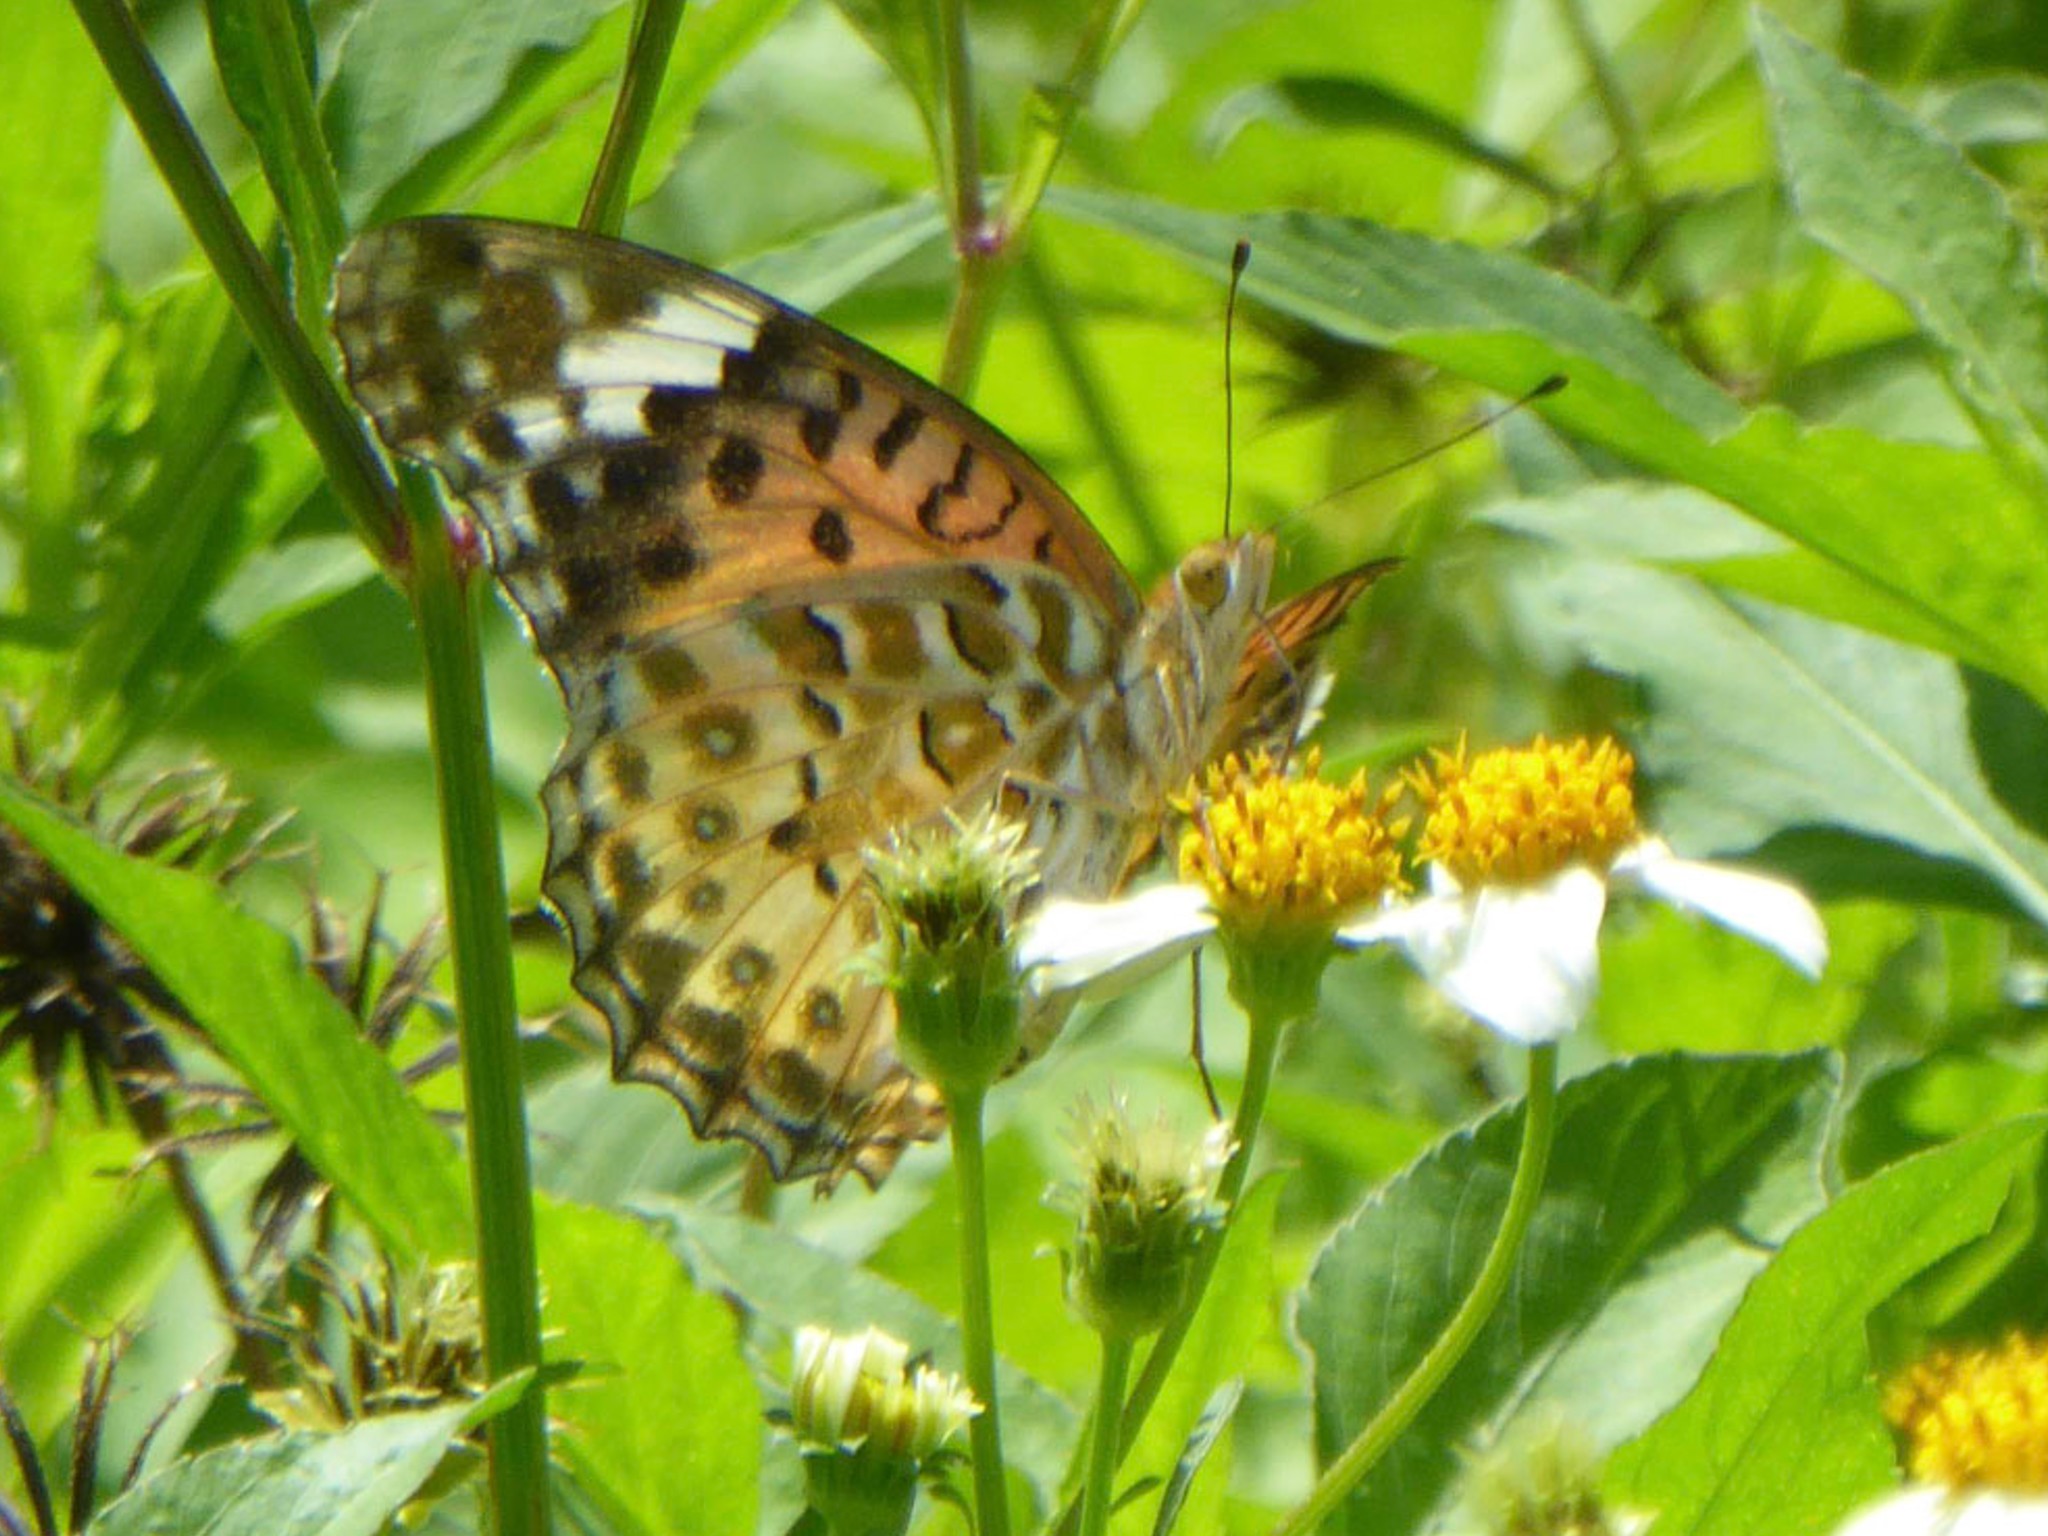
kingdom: Animalia
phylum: Arthropoda
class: Insecta
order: Lepidoptera
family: Nymphalidae
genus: Argynnis
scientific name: Argynnis hyperbius
